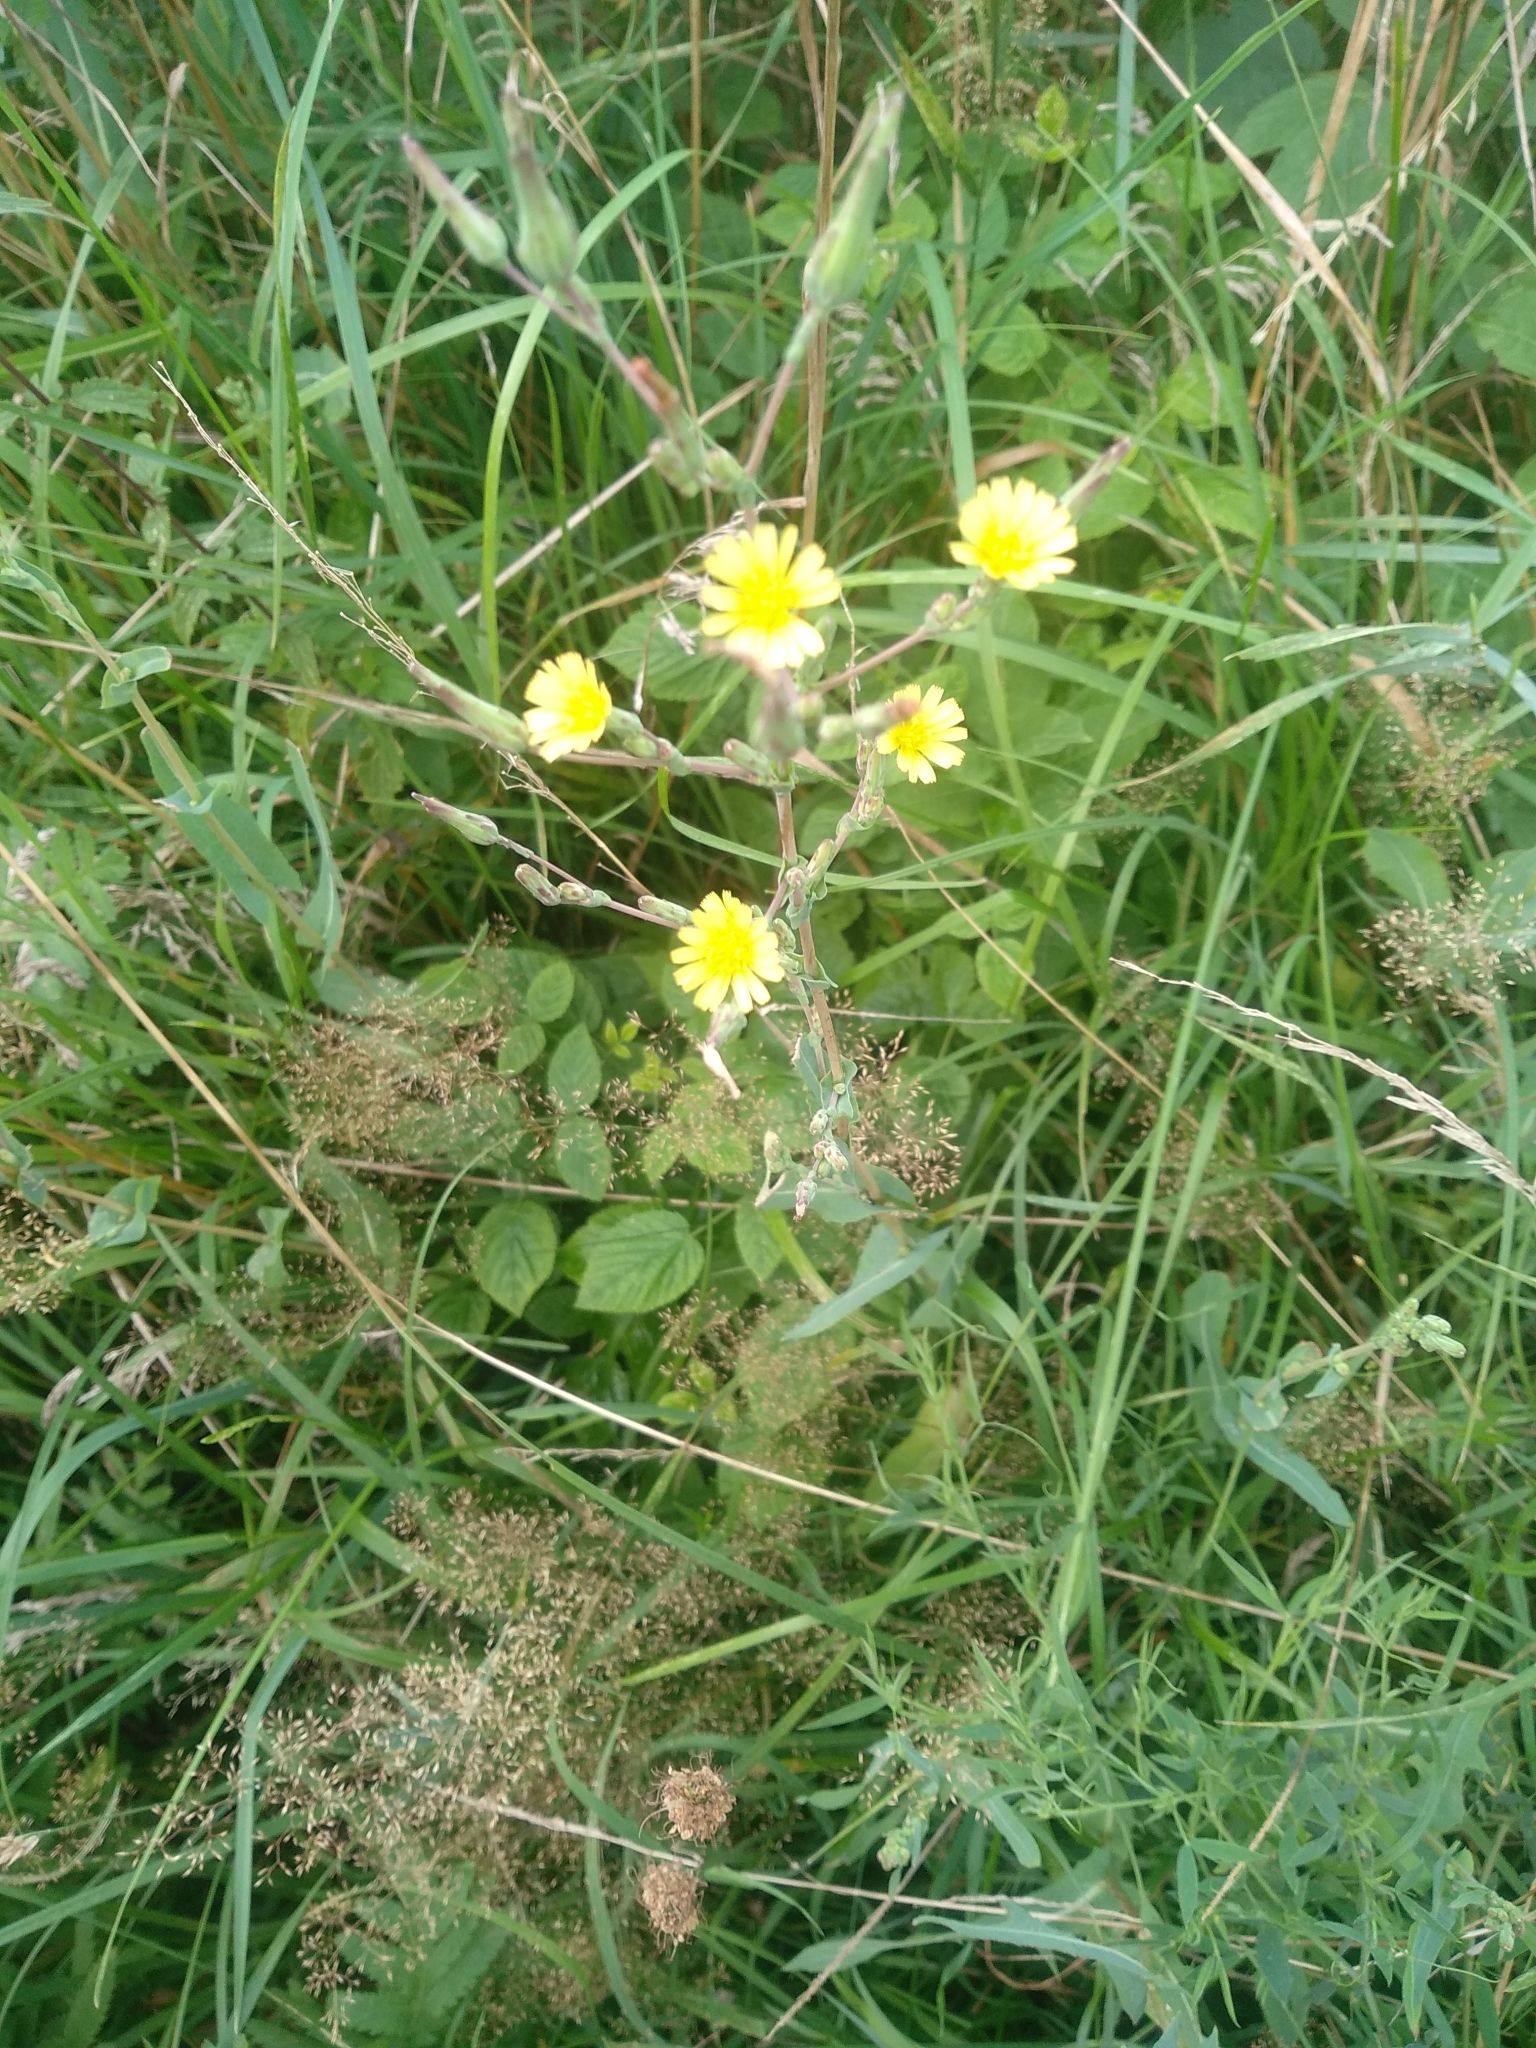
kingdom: Plantae
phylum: Tracheophyta
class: Magnoliopsida
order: Asterales
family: Asteraceae
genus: Lactuca
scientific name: Lactuca serriola
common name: Prickly lettuce
